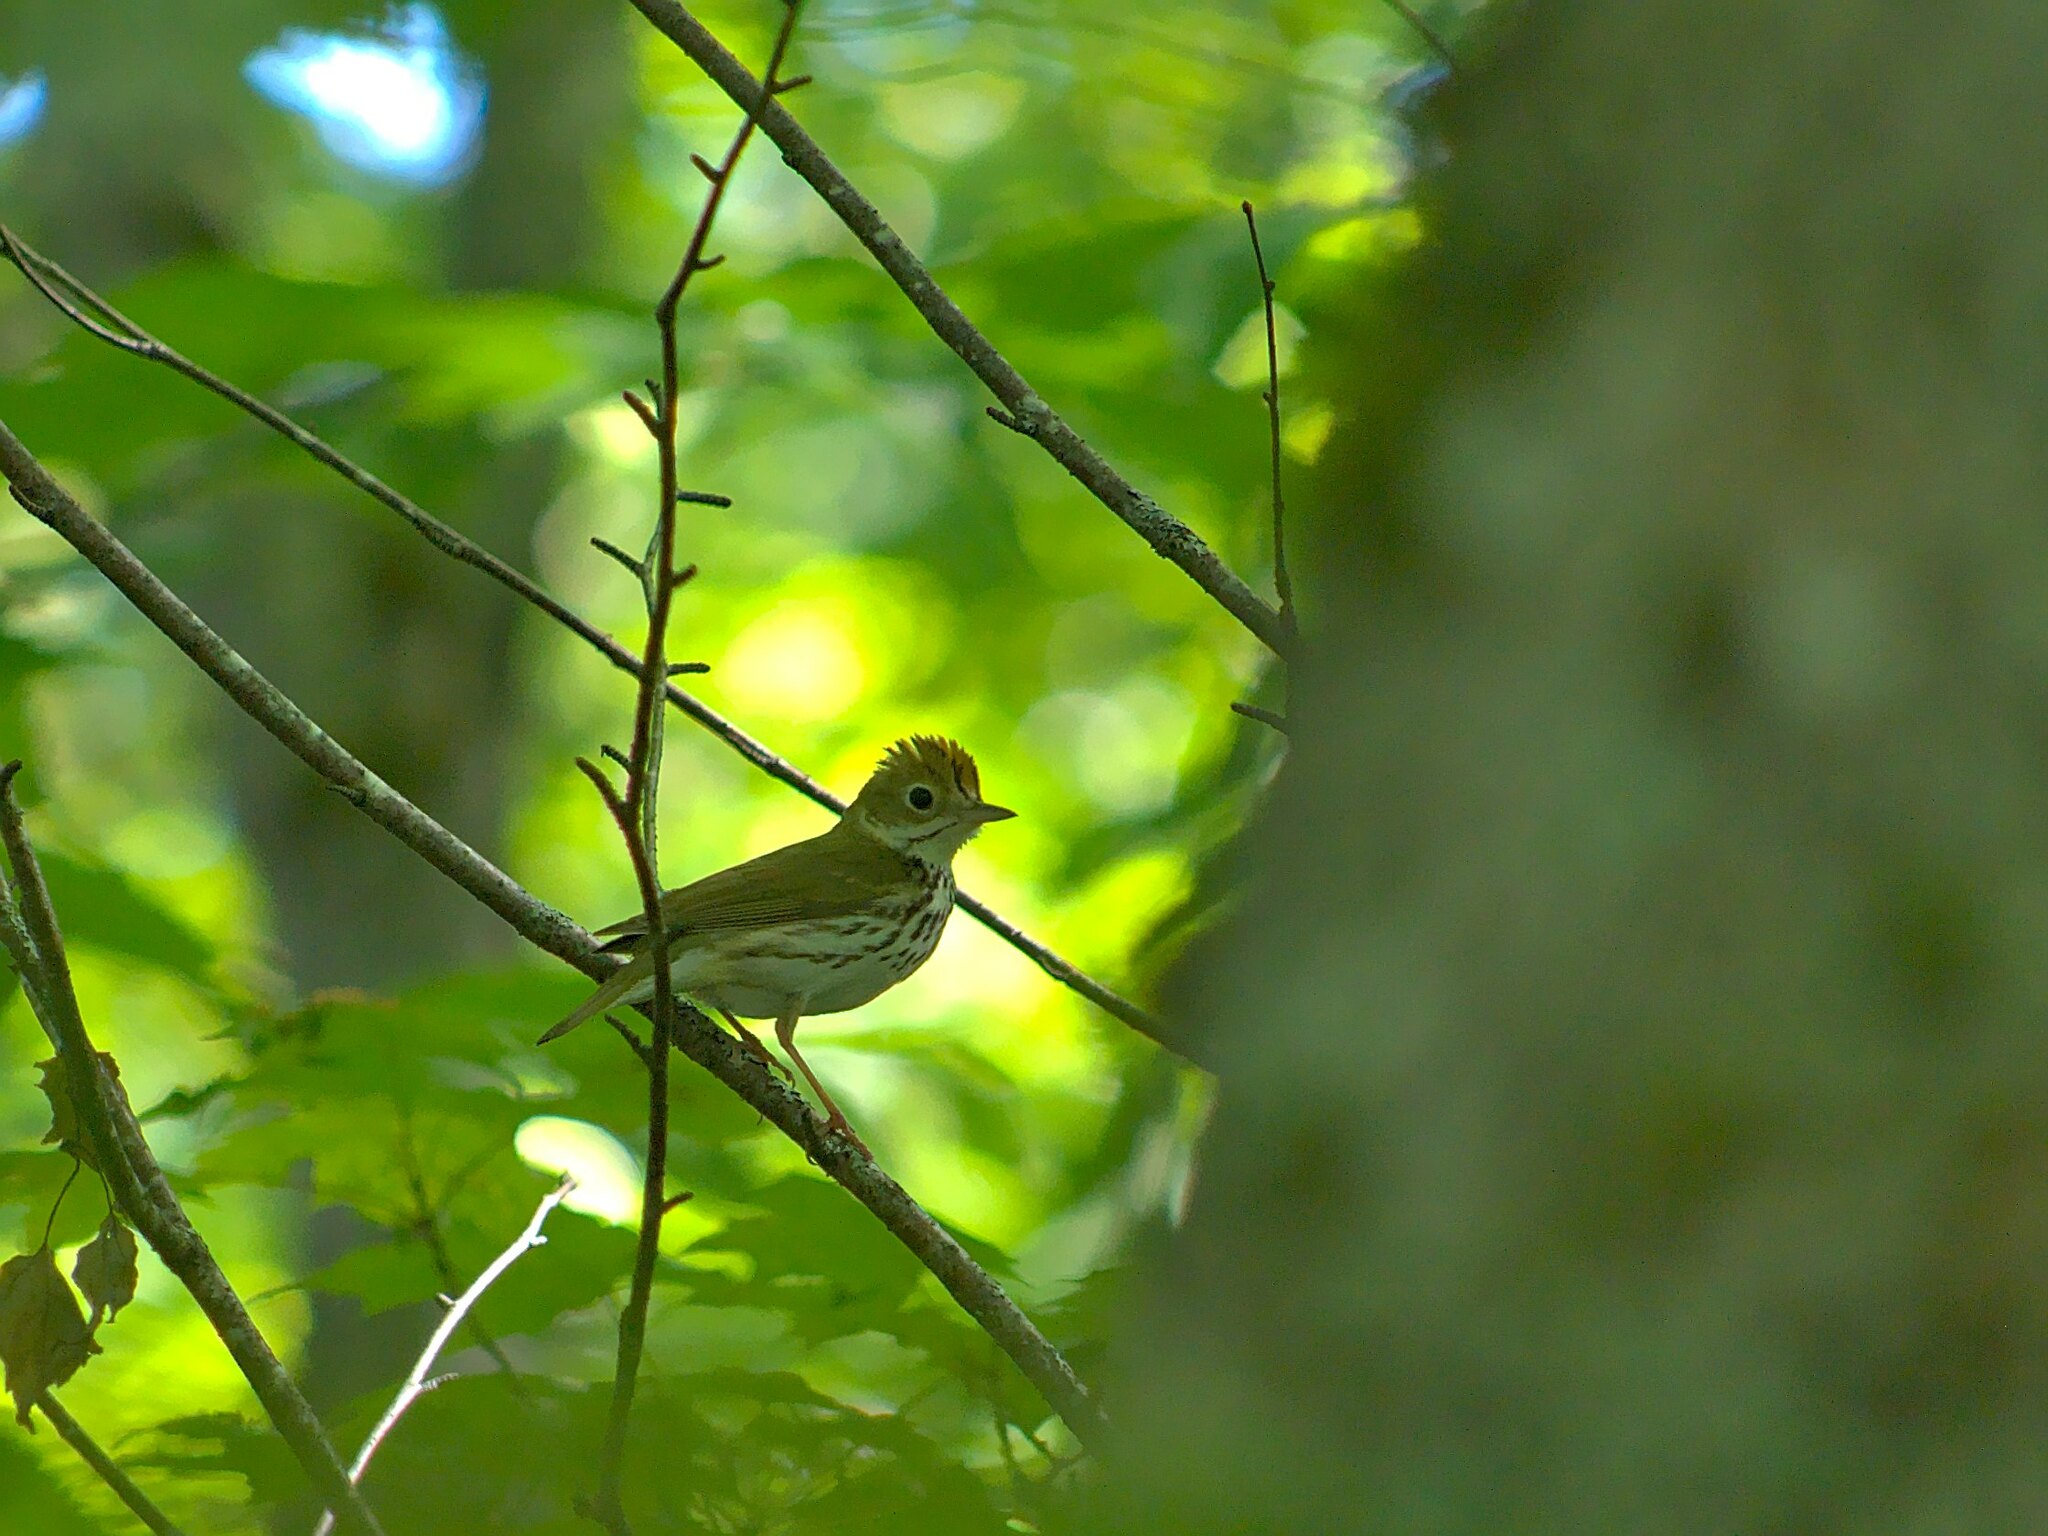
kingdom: Animalia
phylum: Chordata
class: Aves
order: Passeriformes
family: Parulidae
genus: Seiurus
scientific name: Seiurus aurocapilla
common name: Ovenbird
